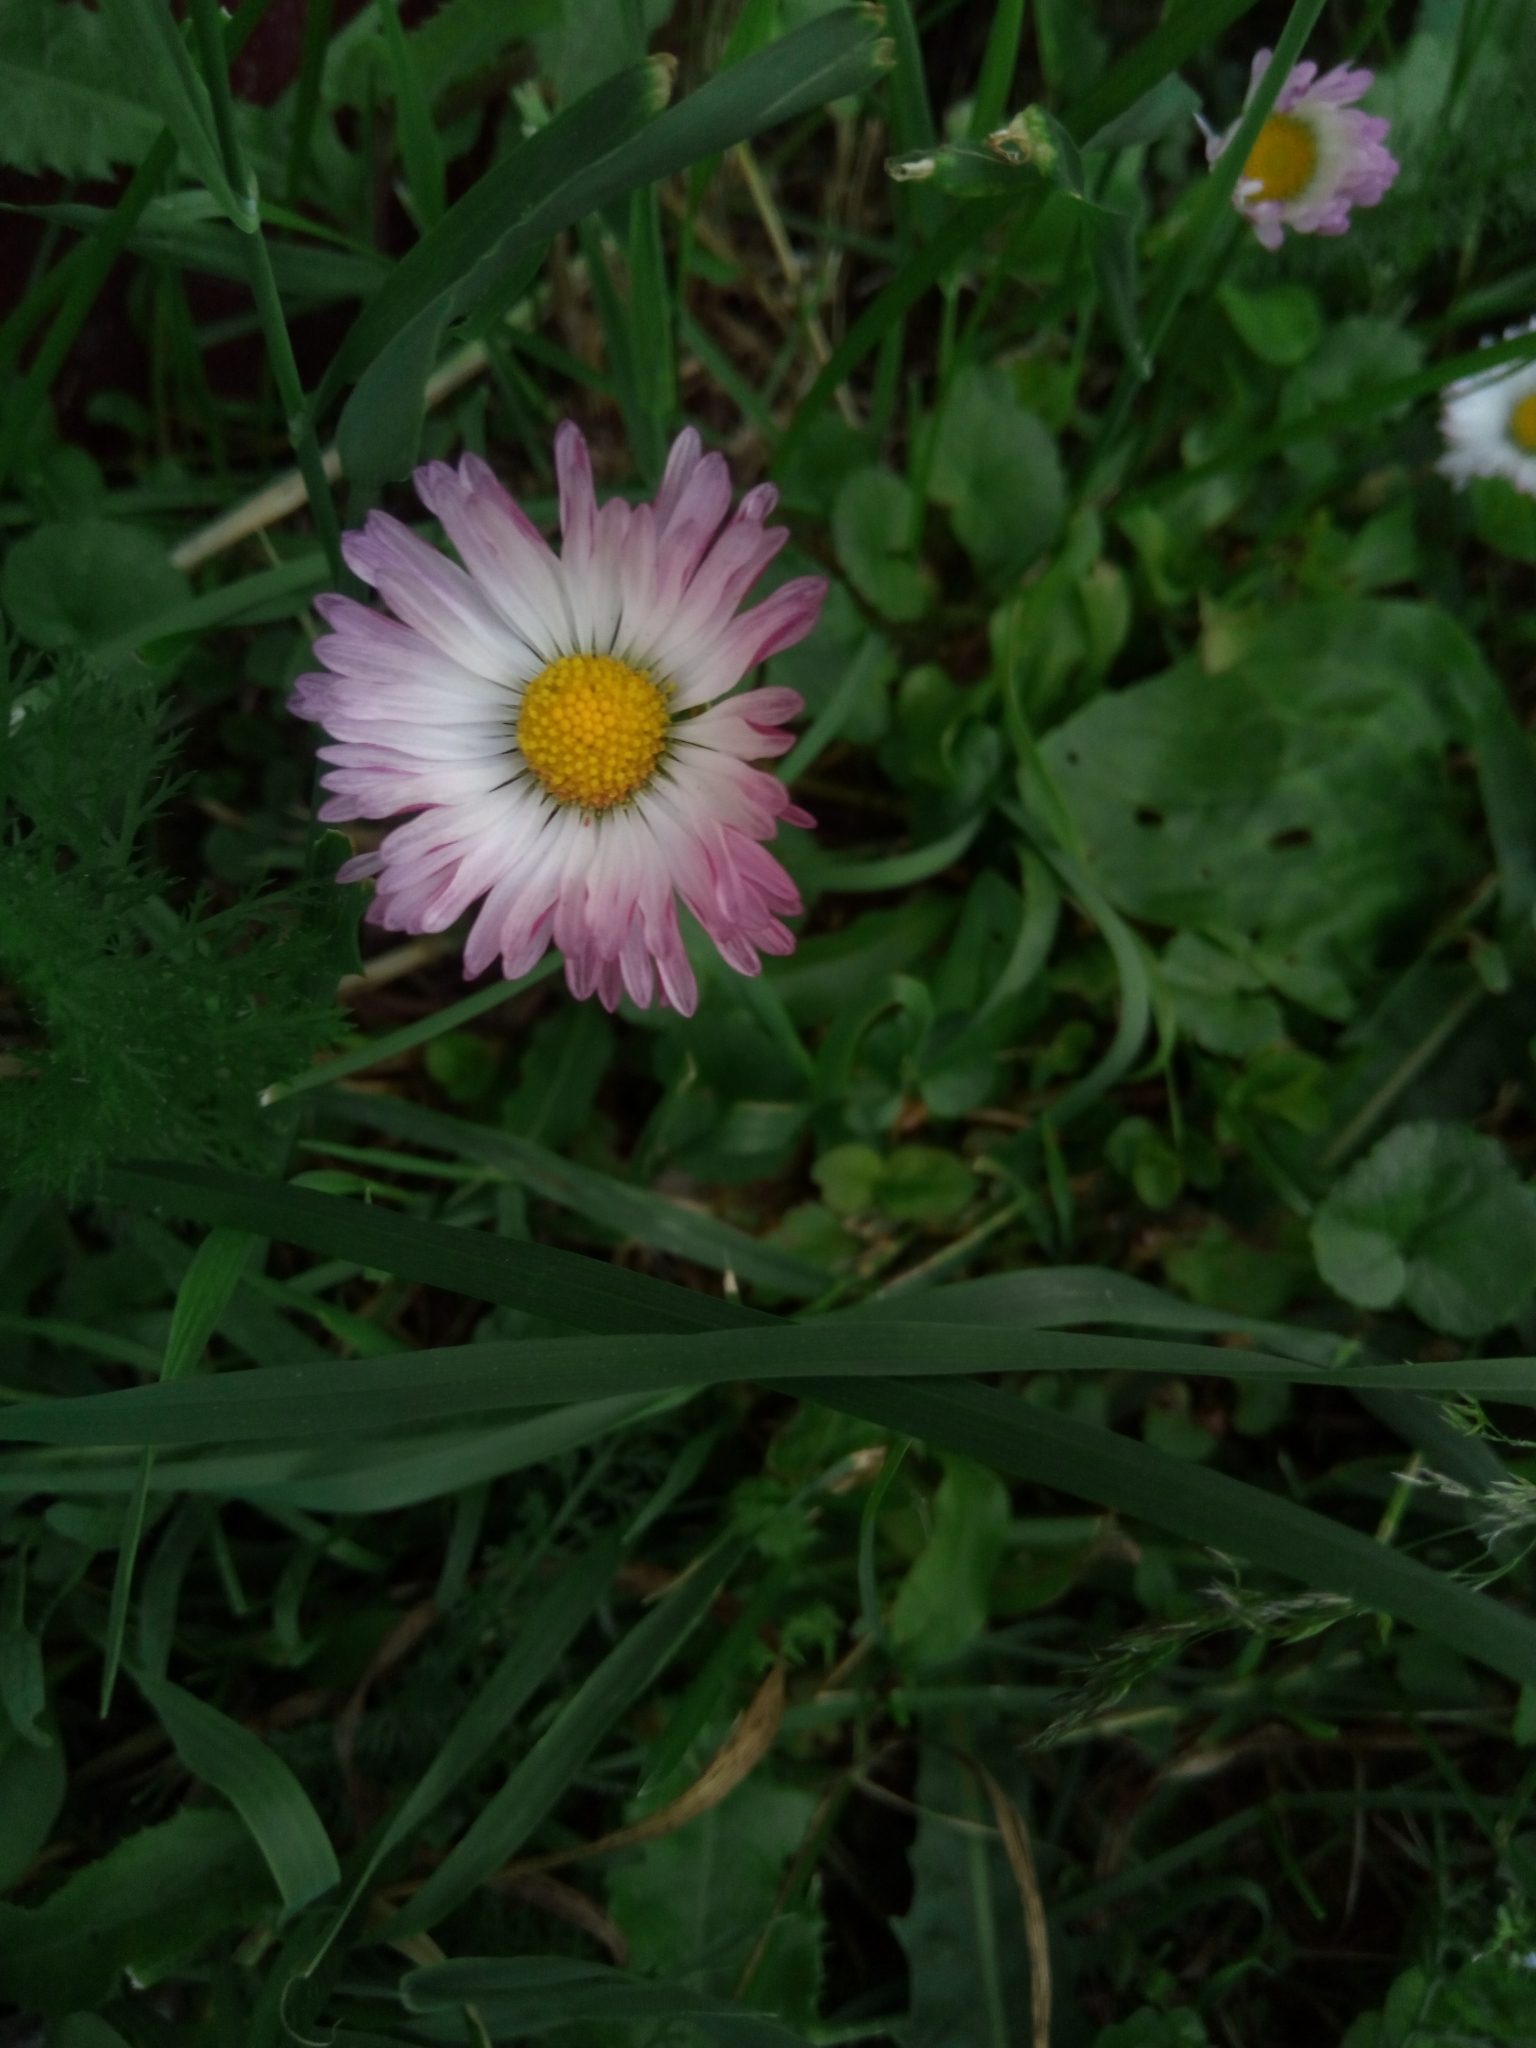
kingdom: Plantae
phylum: Tracheophyta
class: Magnoliopsida
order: Asterales
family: Asteraceae
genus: Bellis
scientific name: Bellis perennis
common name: Lawndaisy
